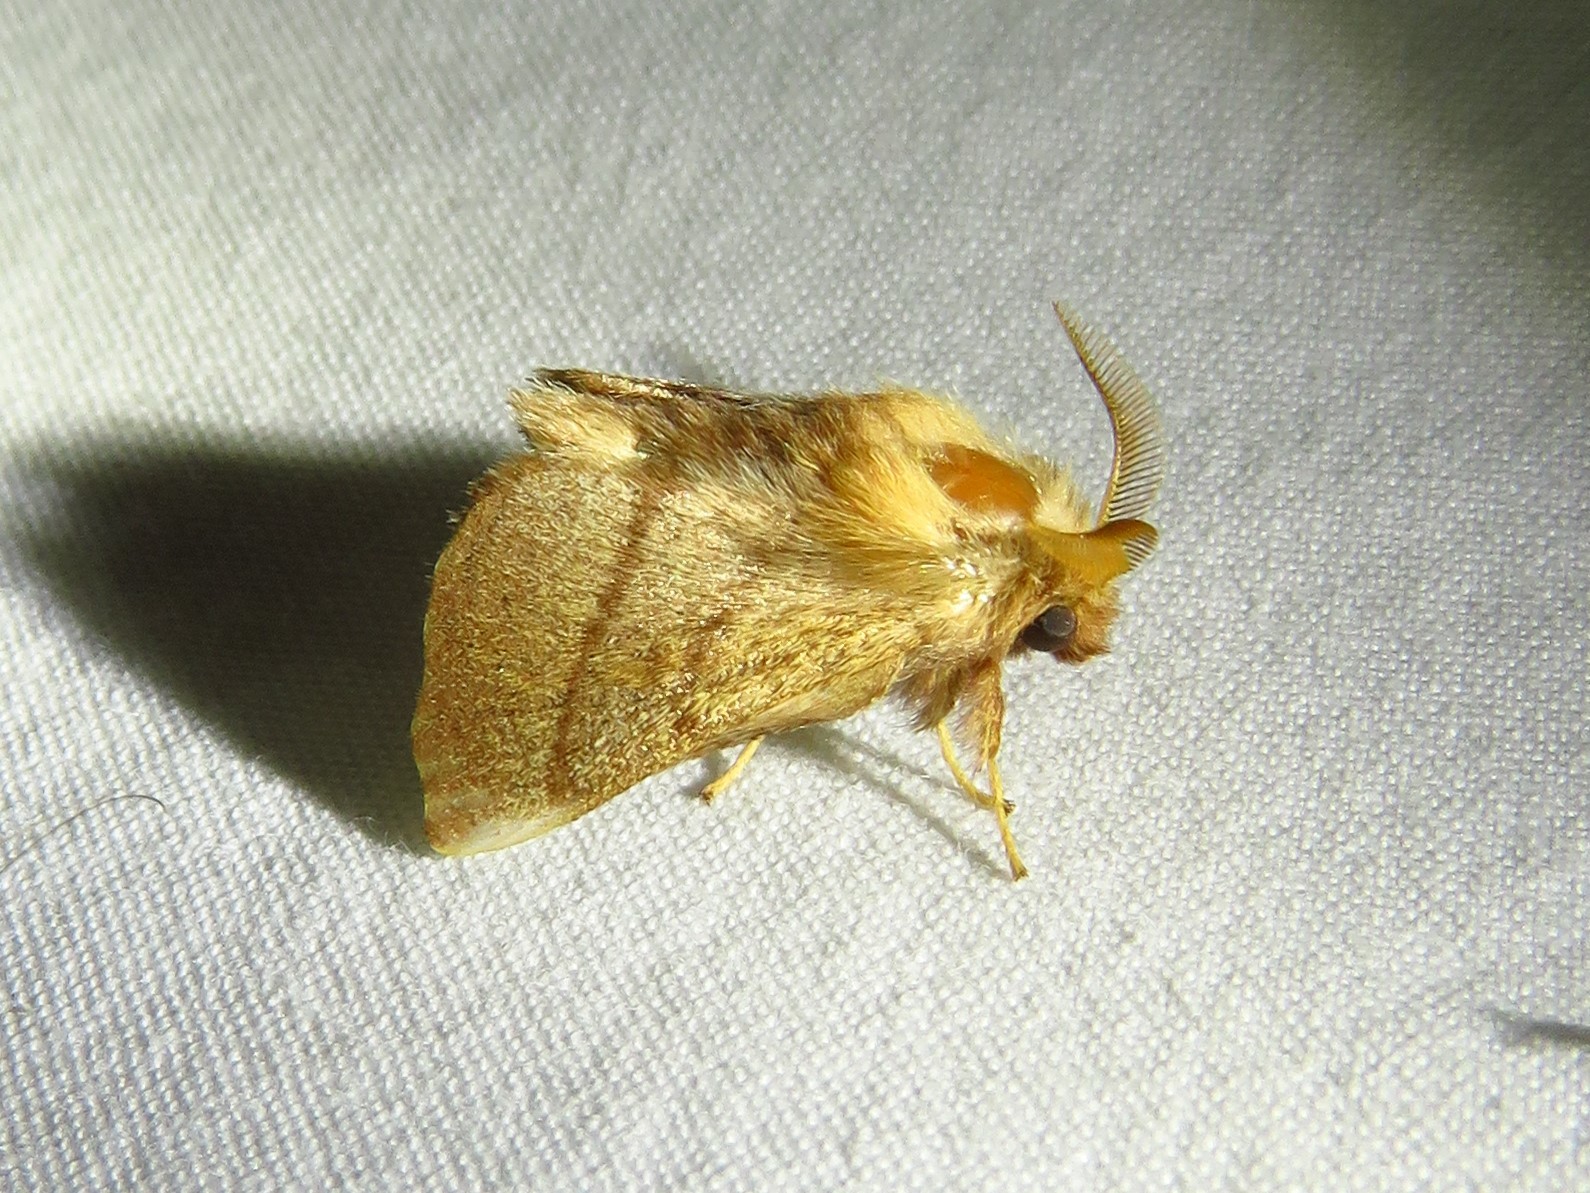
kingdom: Animalia
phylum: Arthropoda
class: Insecta
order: Lepidoptera
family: Lasiocampidae
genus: Malacosoma
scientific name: Malacosoma disstria
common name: Forest tent caterpillar
